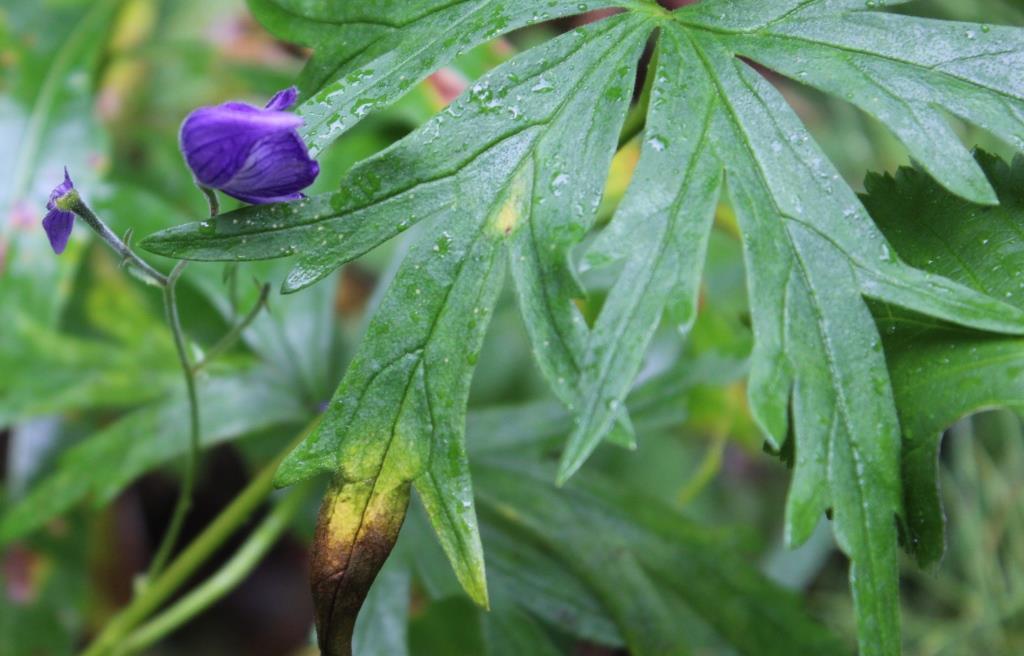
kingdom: Plantae
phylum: Tracheophyta
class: Magnoliopsida
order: Ranunculales
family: Ranunculaceae
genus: Aconitum
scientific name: Aconitum delphiniifolium
